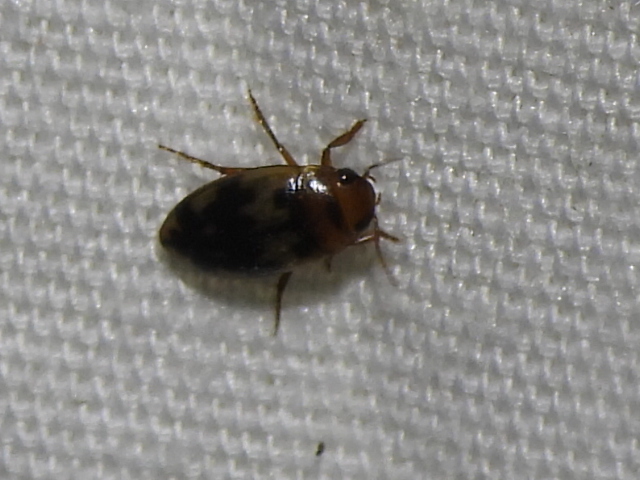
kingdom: Animalia
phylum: Arthropoda
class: Insecta
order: Coleoptera
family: Dytiscidae
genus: Heterosternuta
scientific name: Heterosternuta
